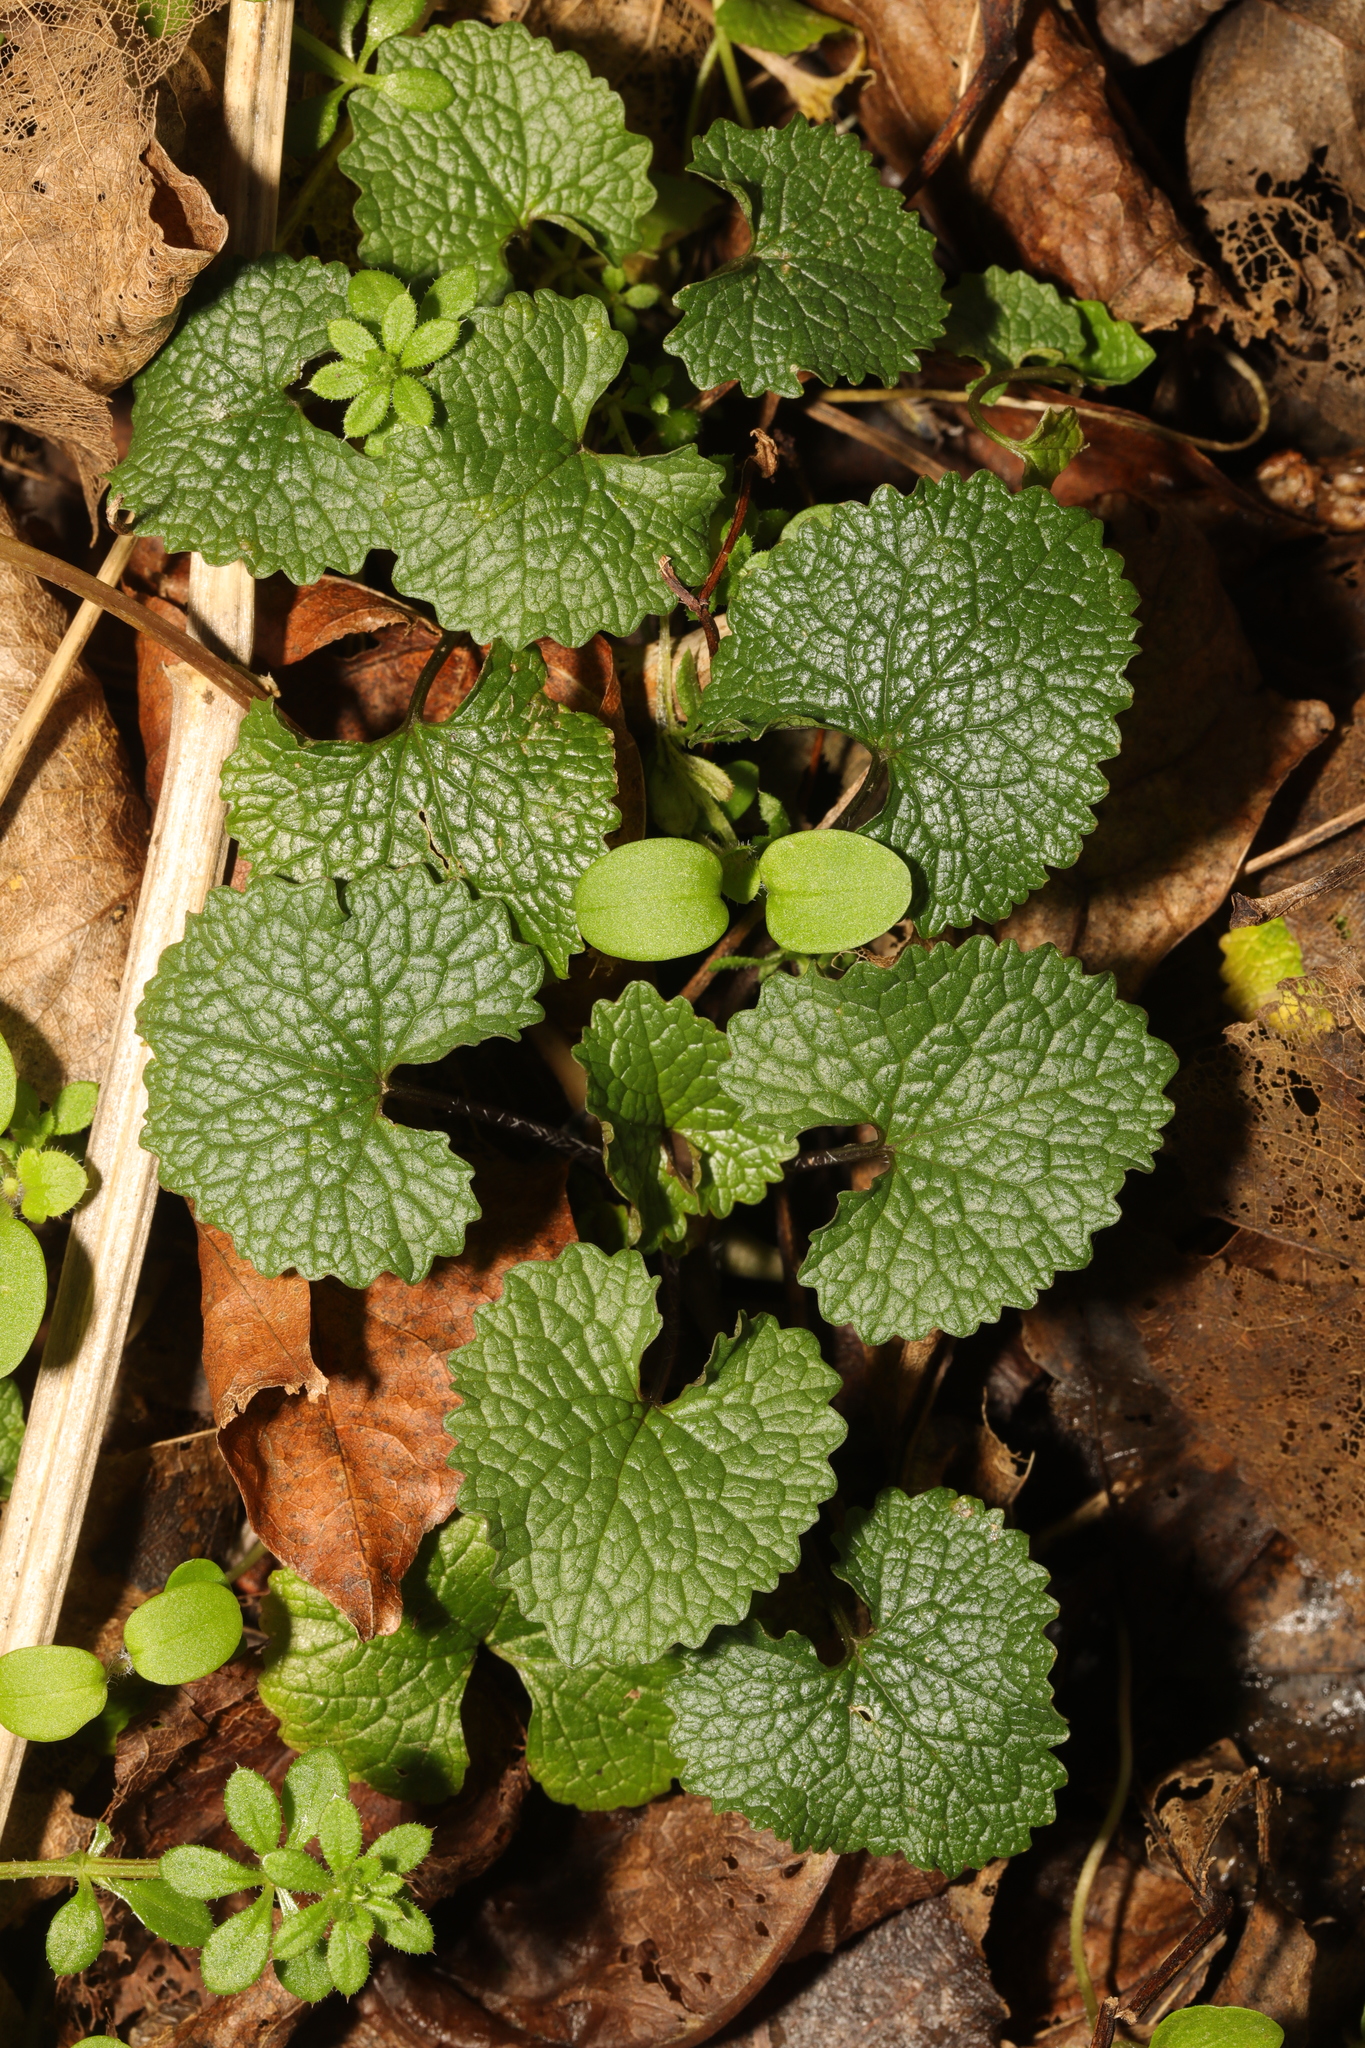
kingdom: Plantae
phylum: Tracheophyta
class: Magnoliopsida
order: Brassicales
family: Brassicaceae
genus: Alliaria
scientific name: Alliaria petiolata
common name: Garlic mustard
